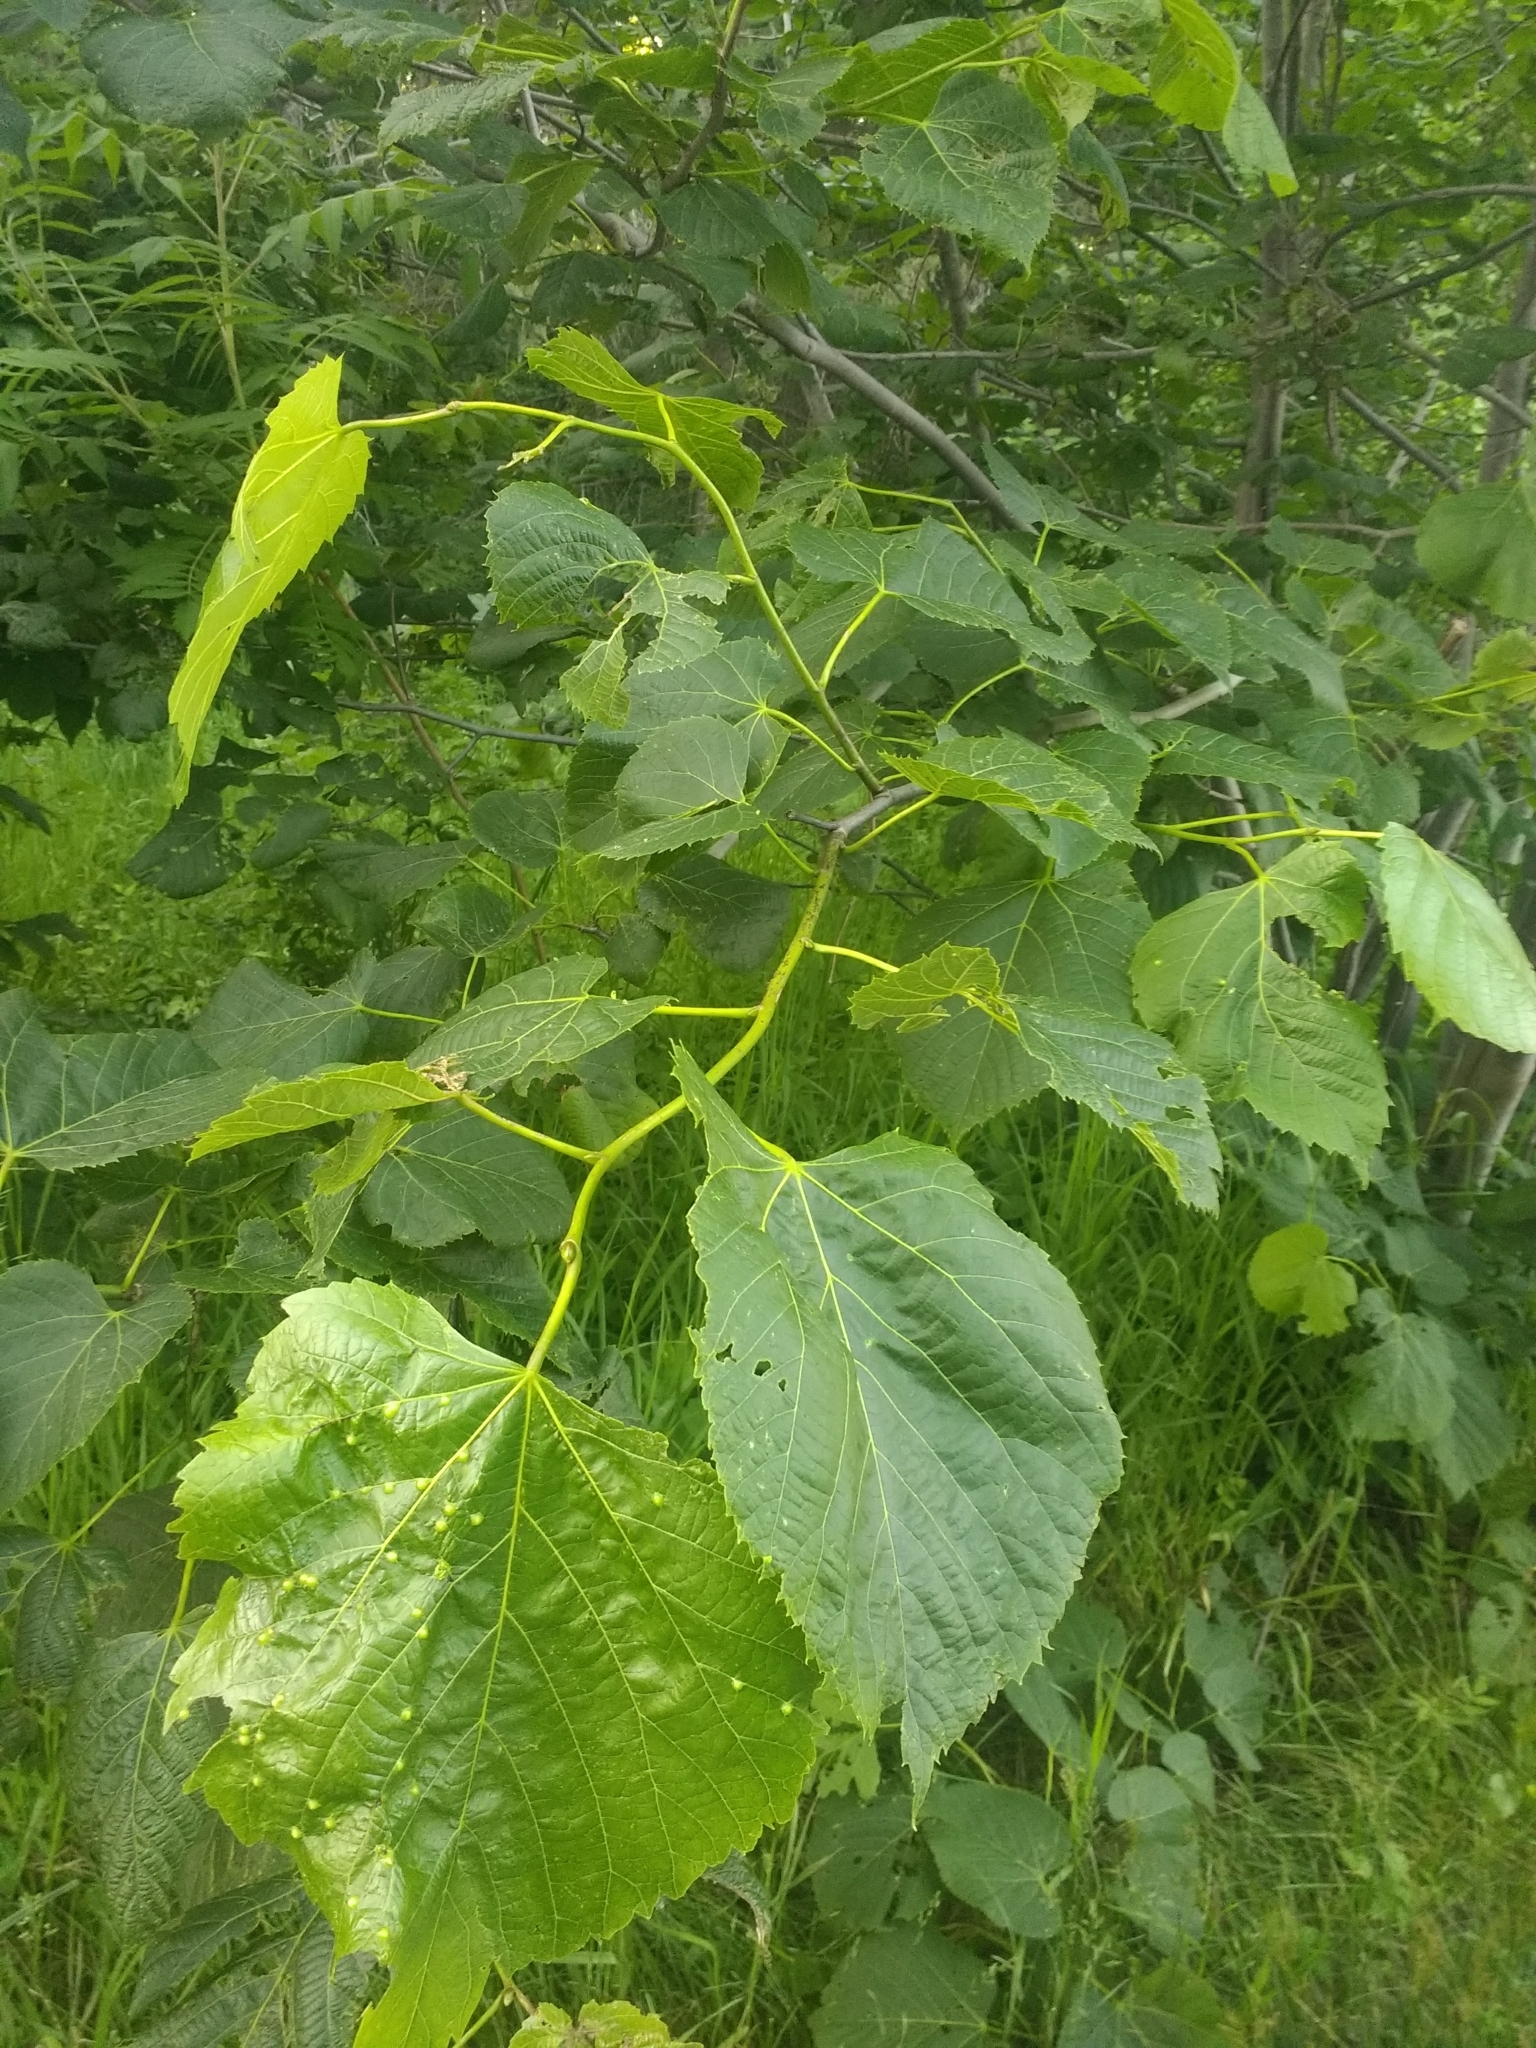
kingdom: Plantae
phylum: Tracheophyta
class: Magnoliopsida
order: Malvales
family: Malvaceae
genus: Tilia
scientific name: Tilia americana
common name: Basswood
